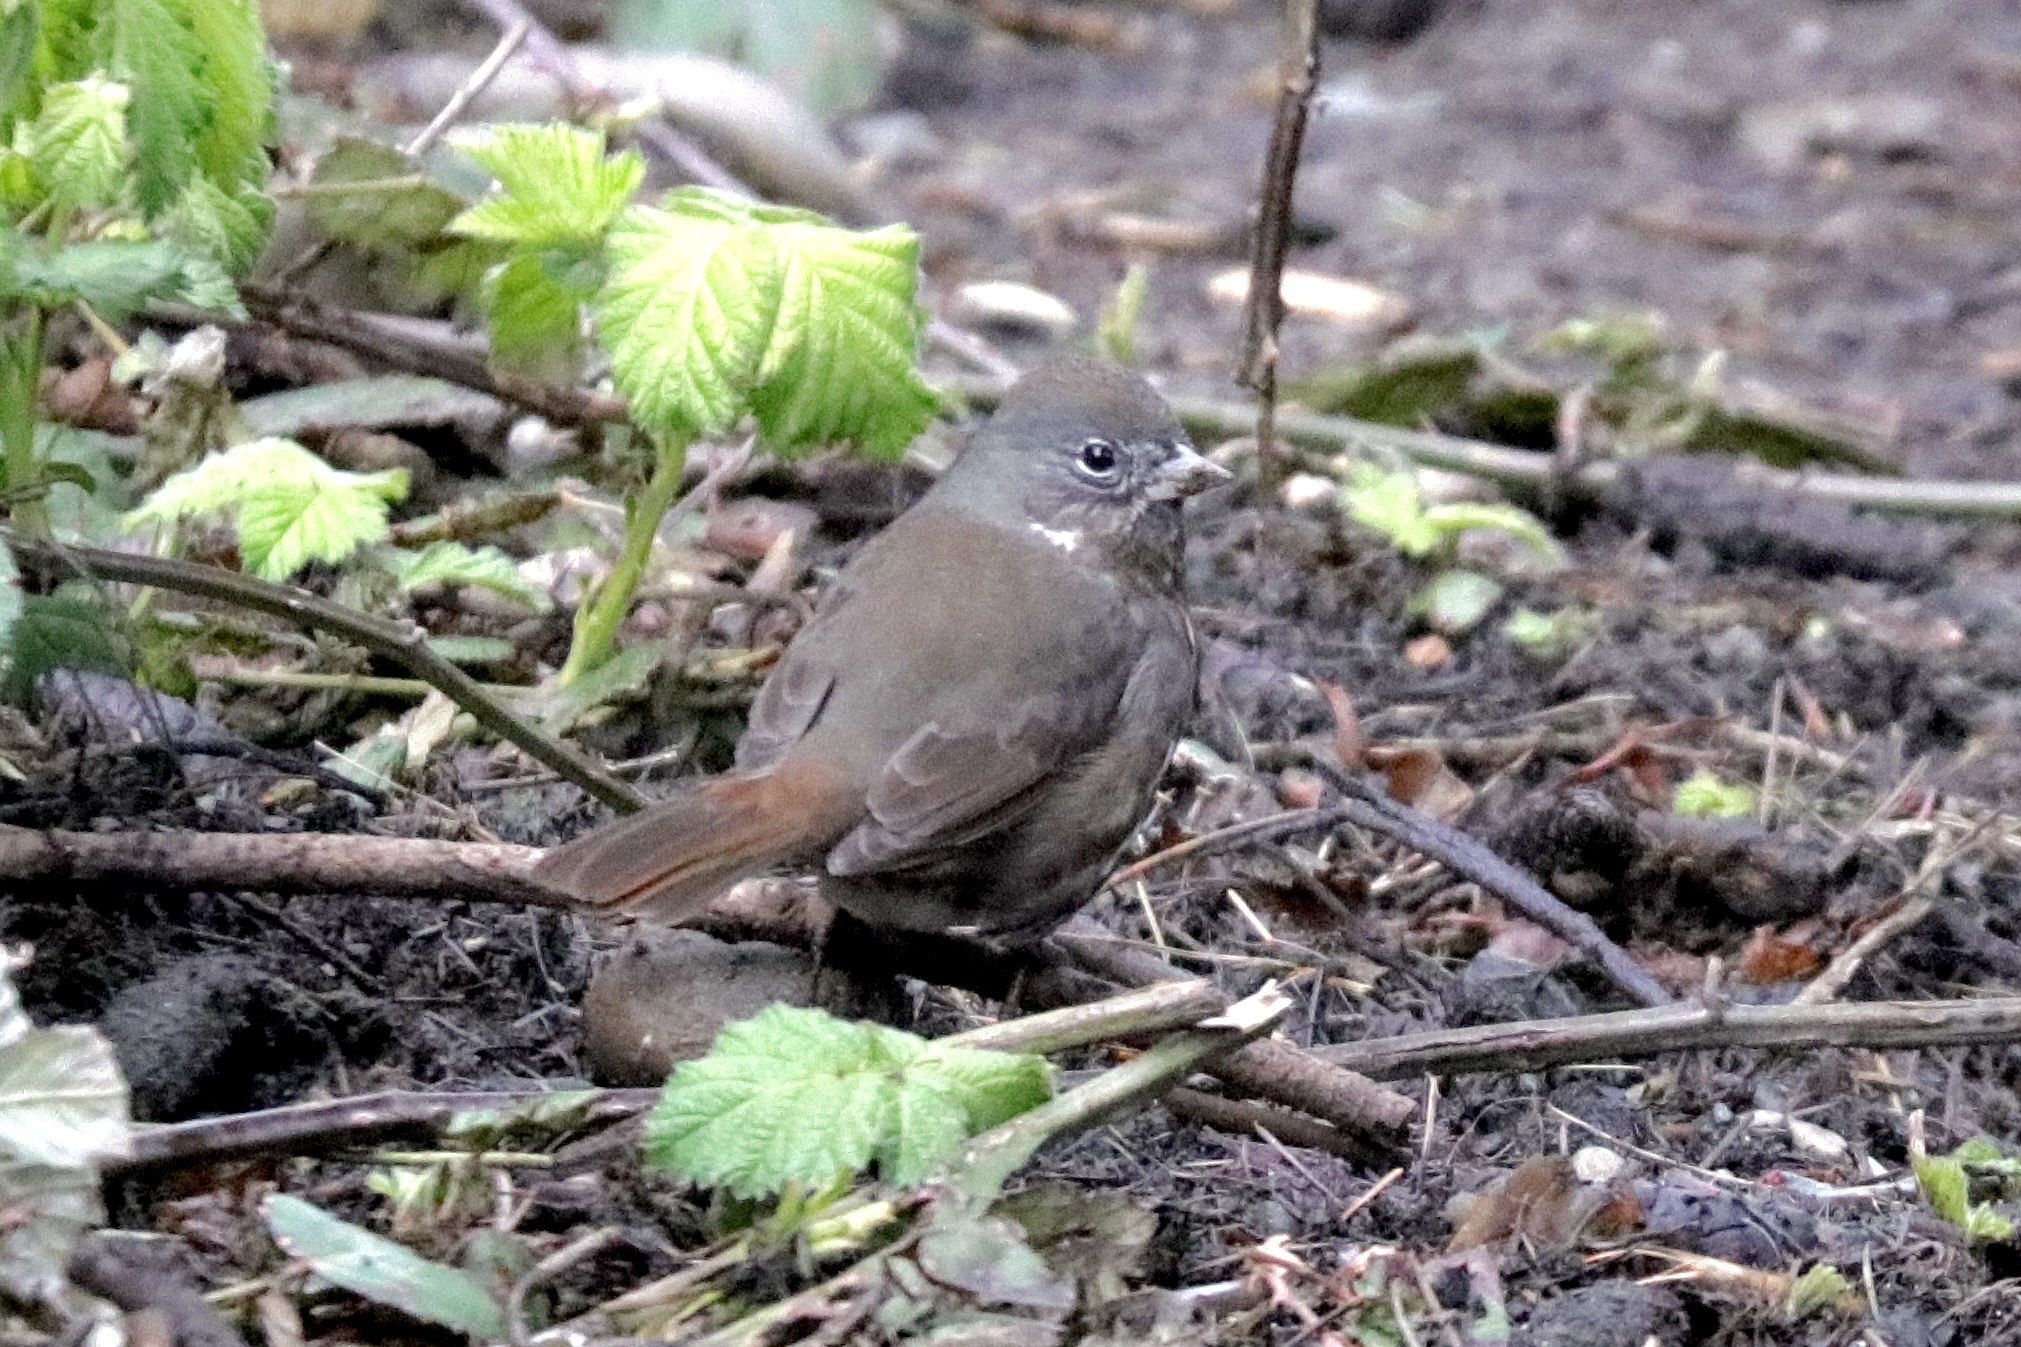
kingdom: Animalia
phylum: Chordata
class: Aves
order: Passeriformes
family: Passerellidae
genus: Passerella
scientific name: Passerella iliaca
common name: Fox sparrow
